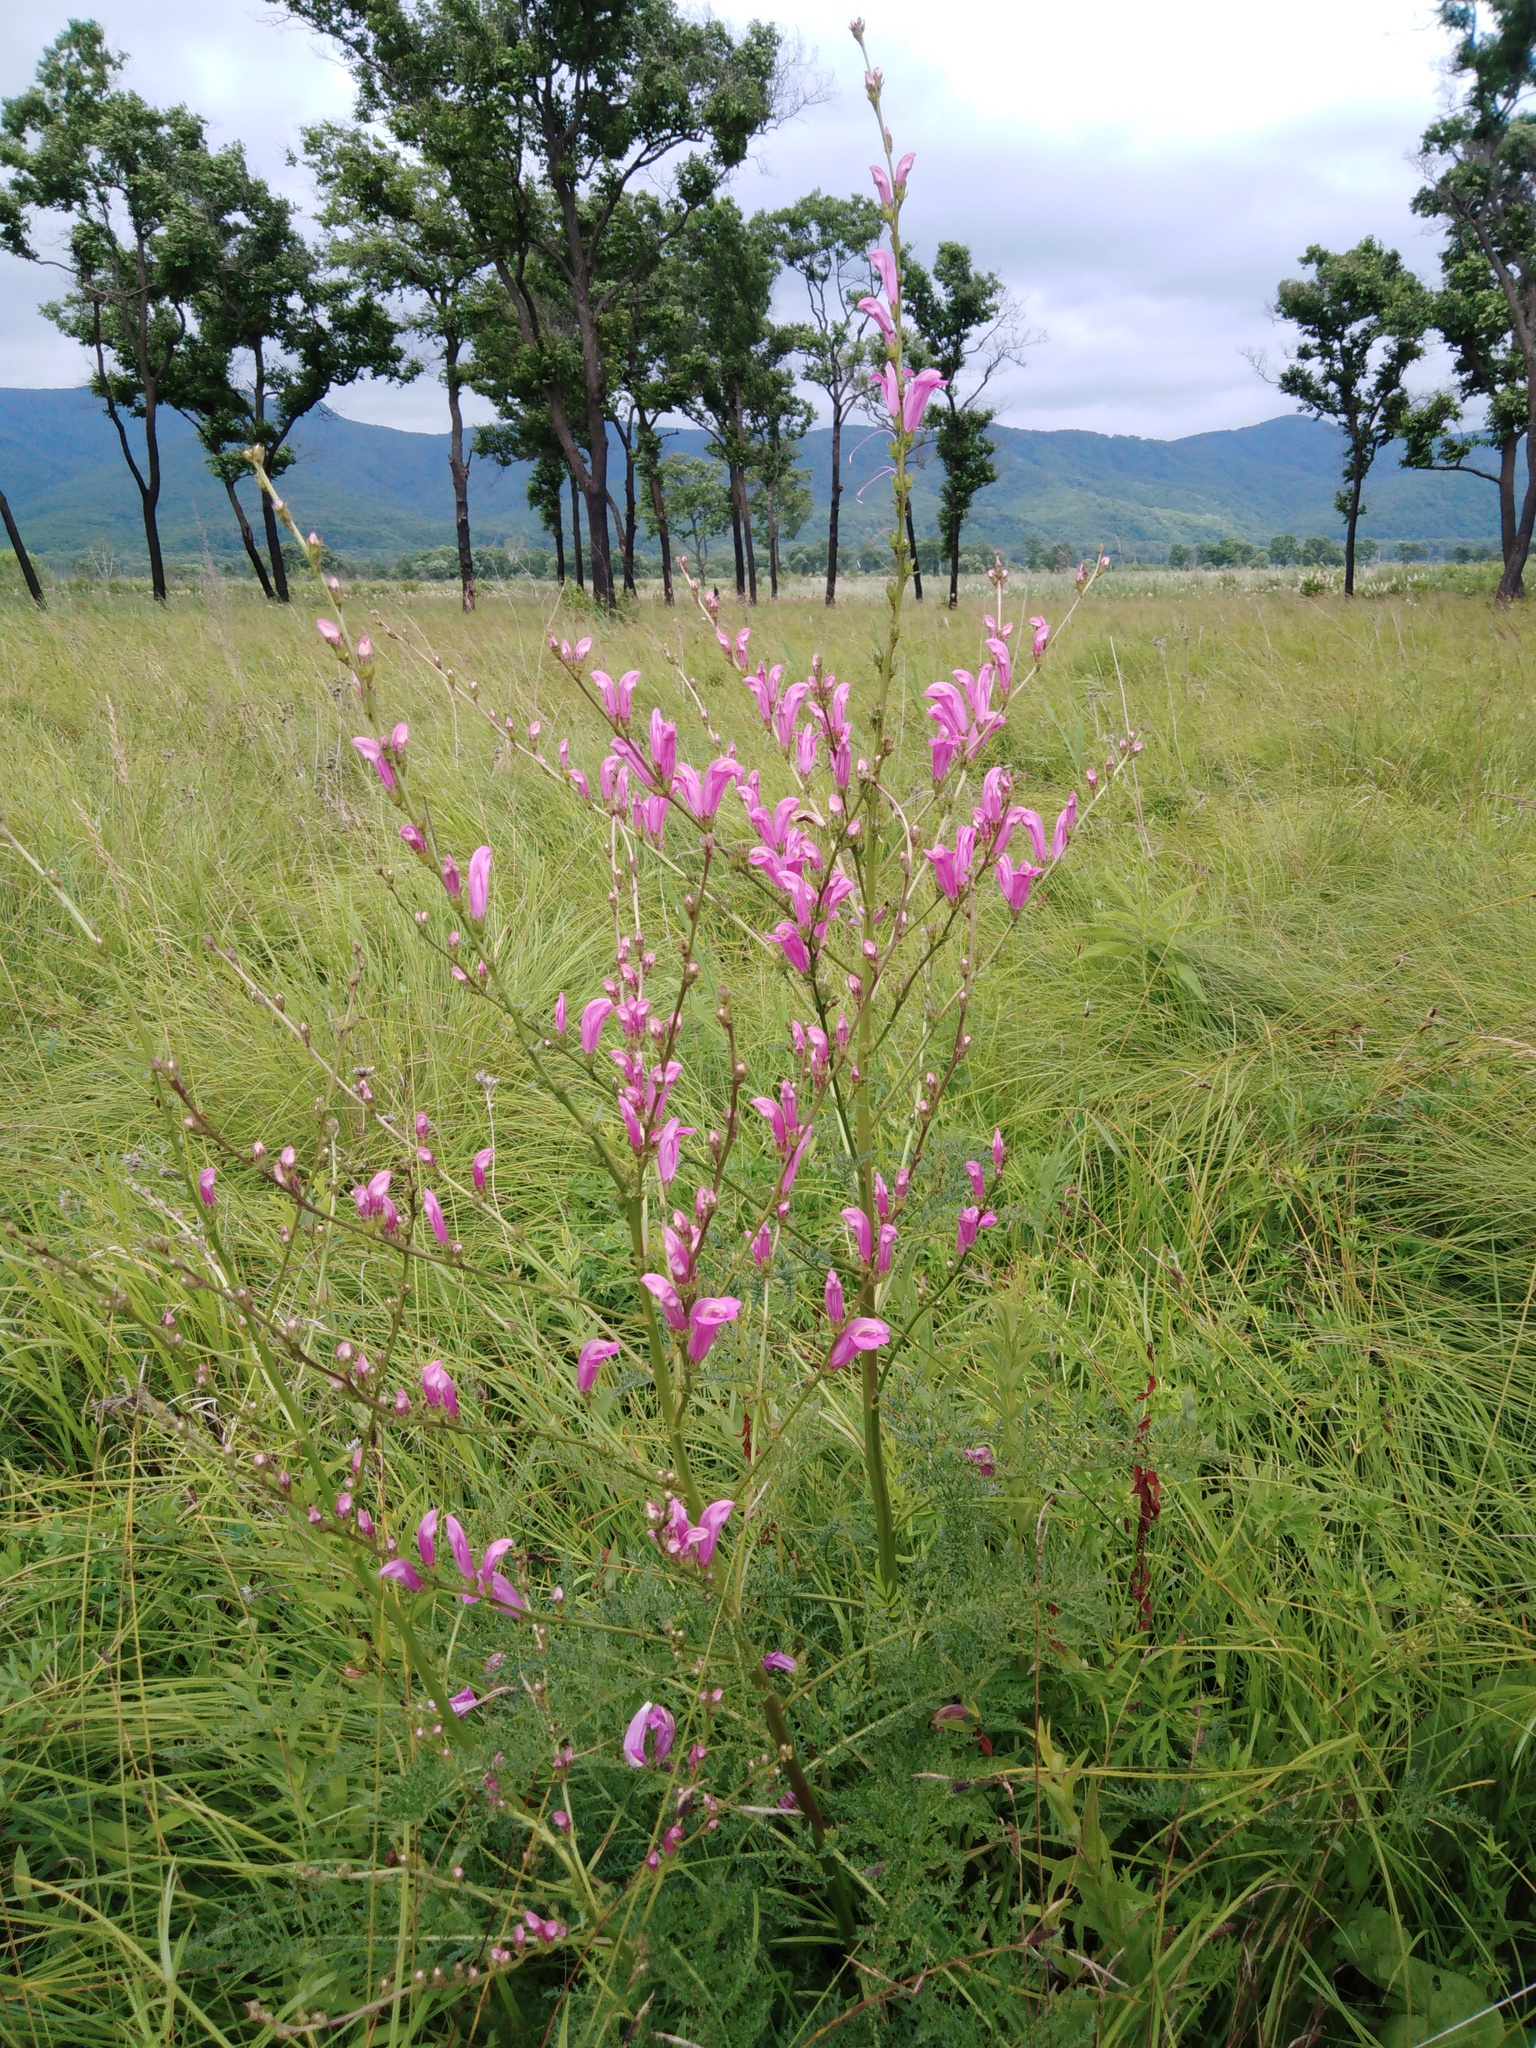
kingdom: Plantae
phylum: Tracheophyta
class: Magnoliopsida
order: Lamiales
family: Orobanchaceae
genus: Pedicularis
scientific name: Pedicularis
